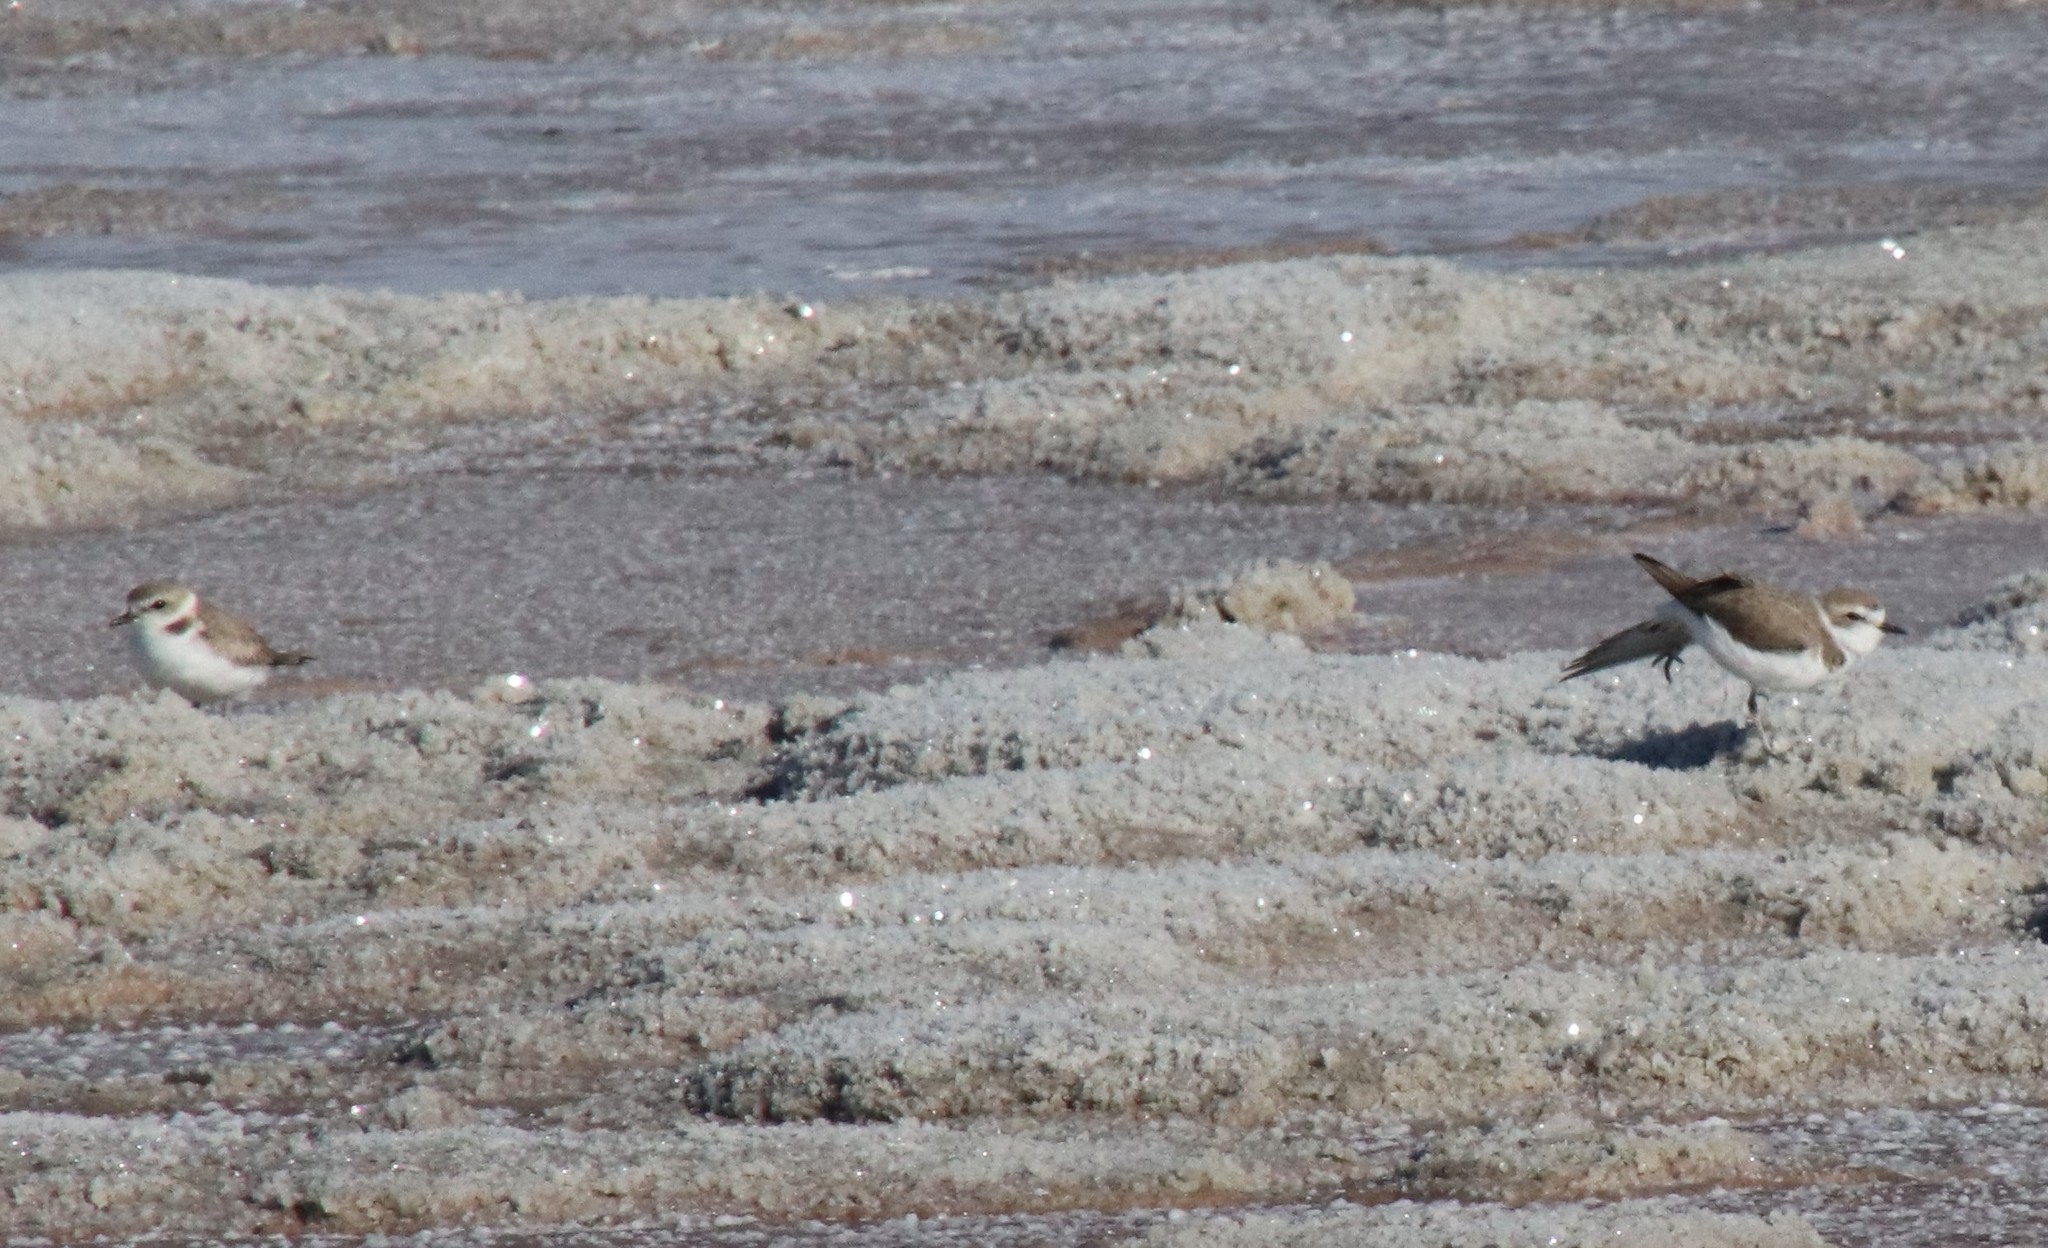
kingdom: Animalia
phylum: Chordata
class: Aves
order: Charadriiformes
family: Charadriidae
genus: Anarhynchus
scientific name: Anarhynchus
